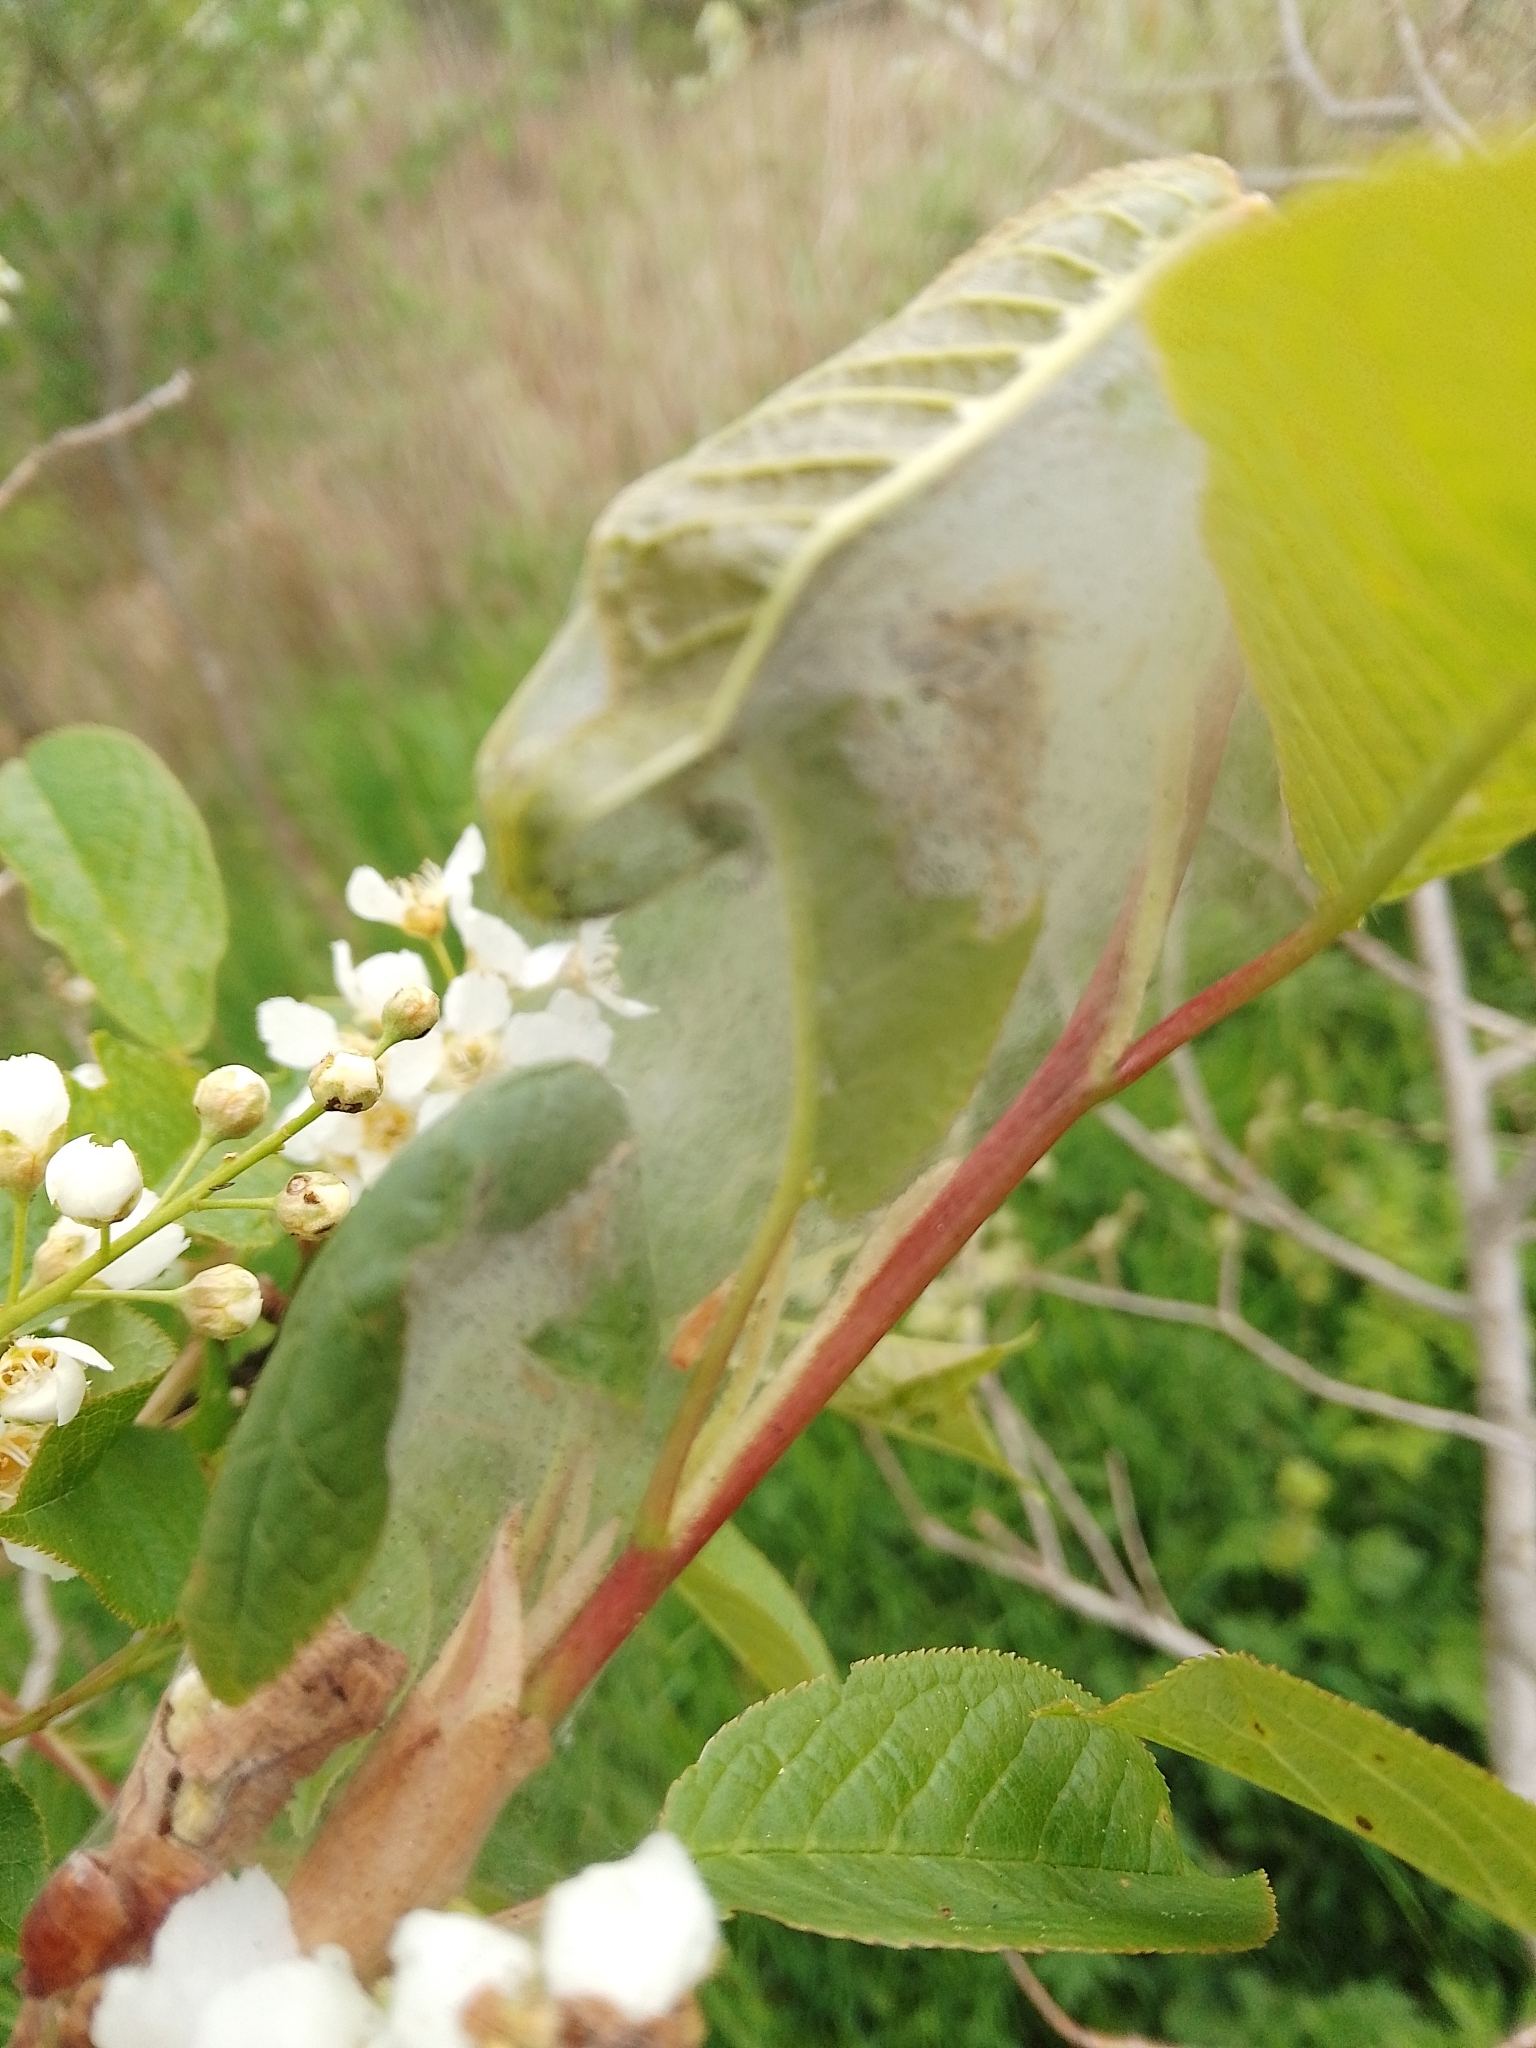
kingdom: Animalia
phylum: Arthropoda
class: Insecta
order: Lepidoptera
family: Yponomeutidae
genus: Yponomeuta
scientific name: Yponomeuta evonymella
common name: Bird-cherry ermine
